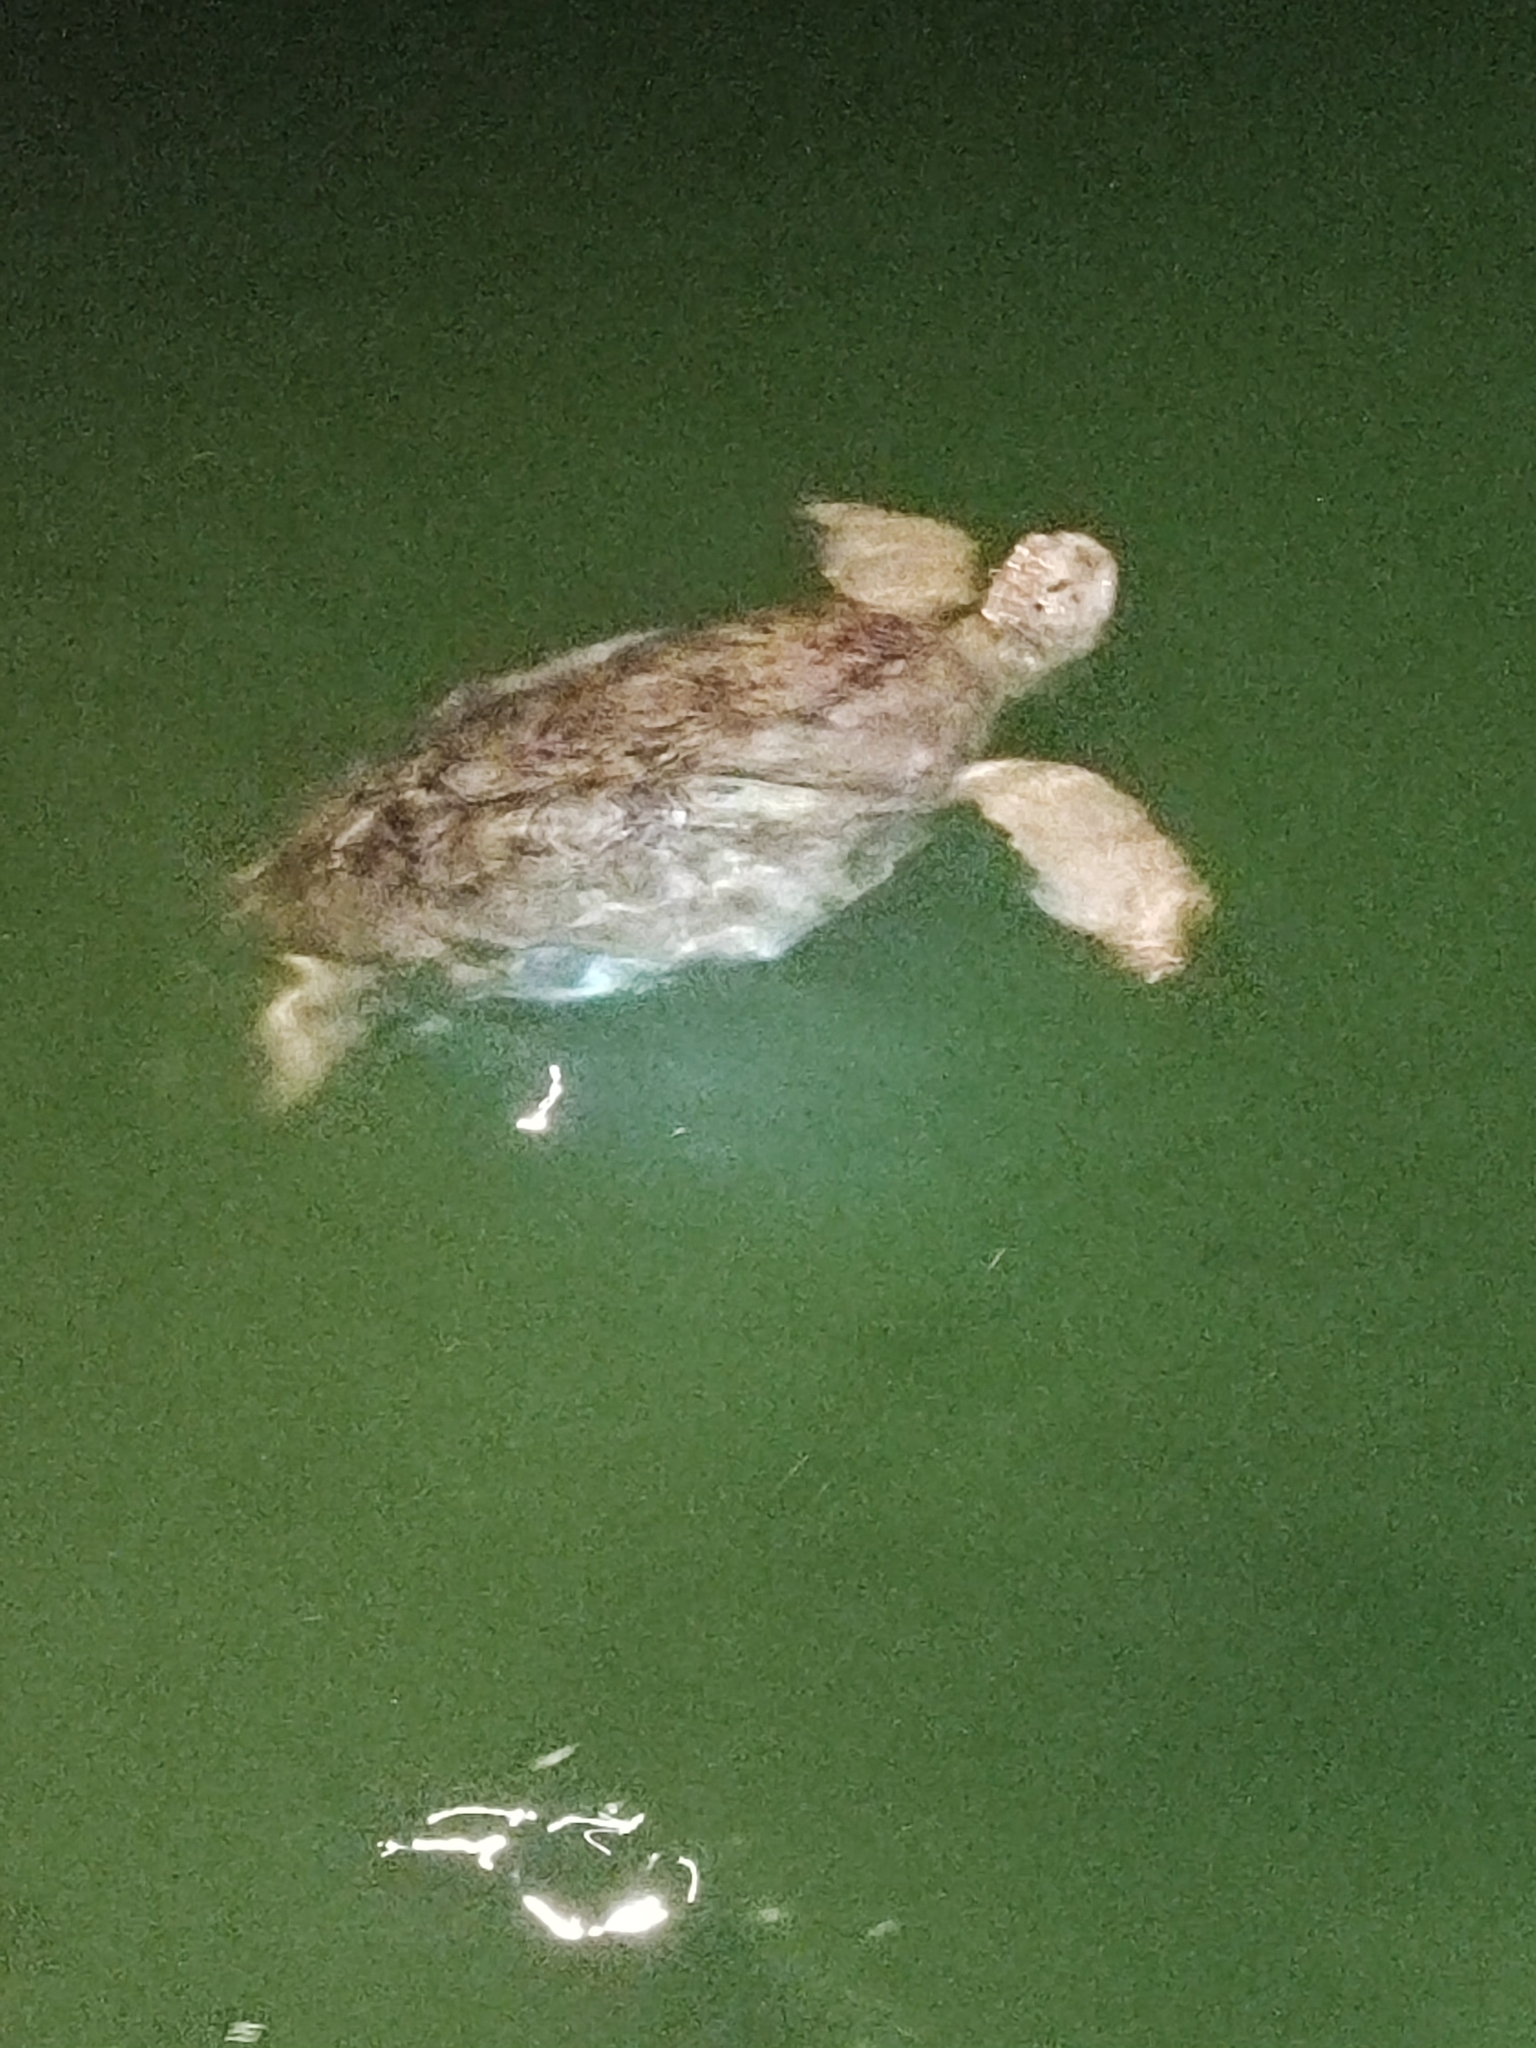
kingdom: Animalia
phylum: Chordata
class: Testudines
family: Cheloniidae
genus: Chelonia
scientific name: Chelonia mydas
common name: Green turtle
